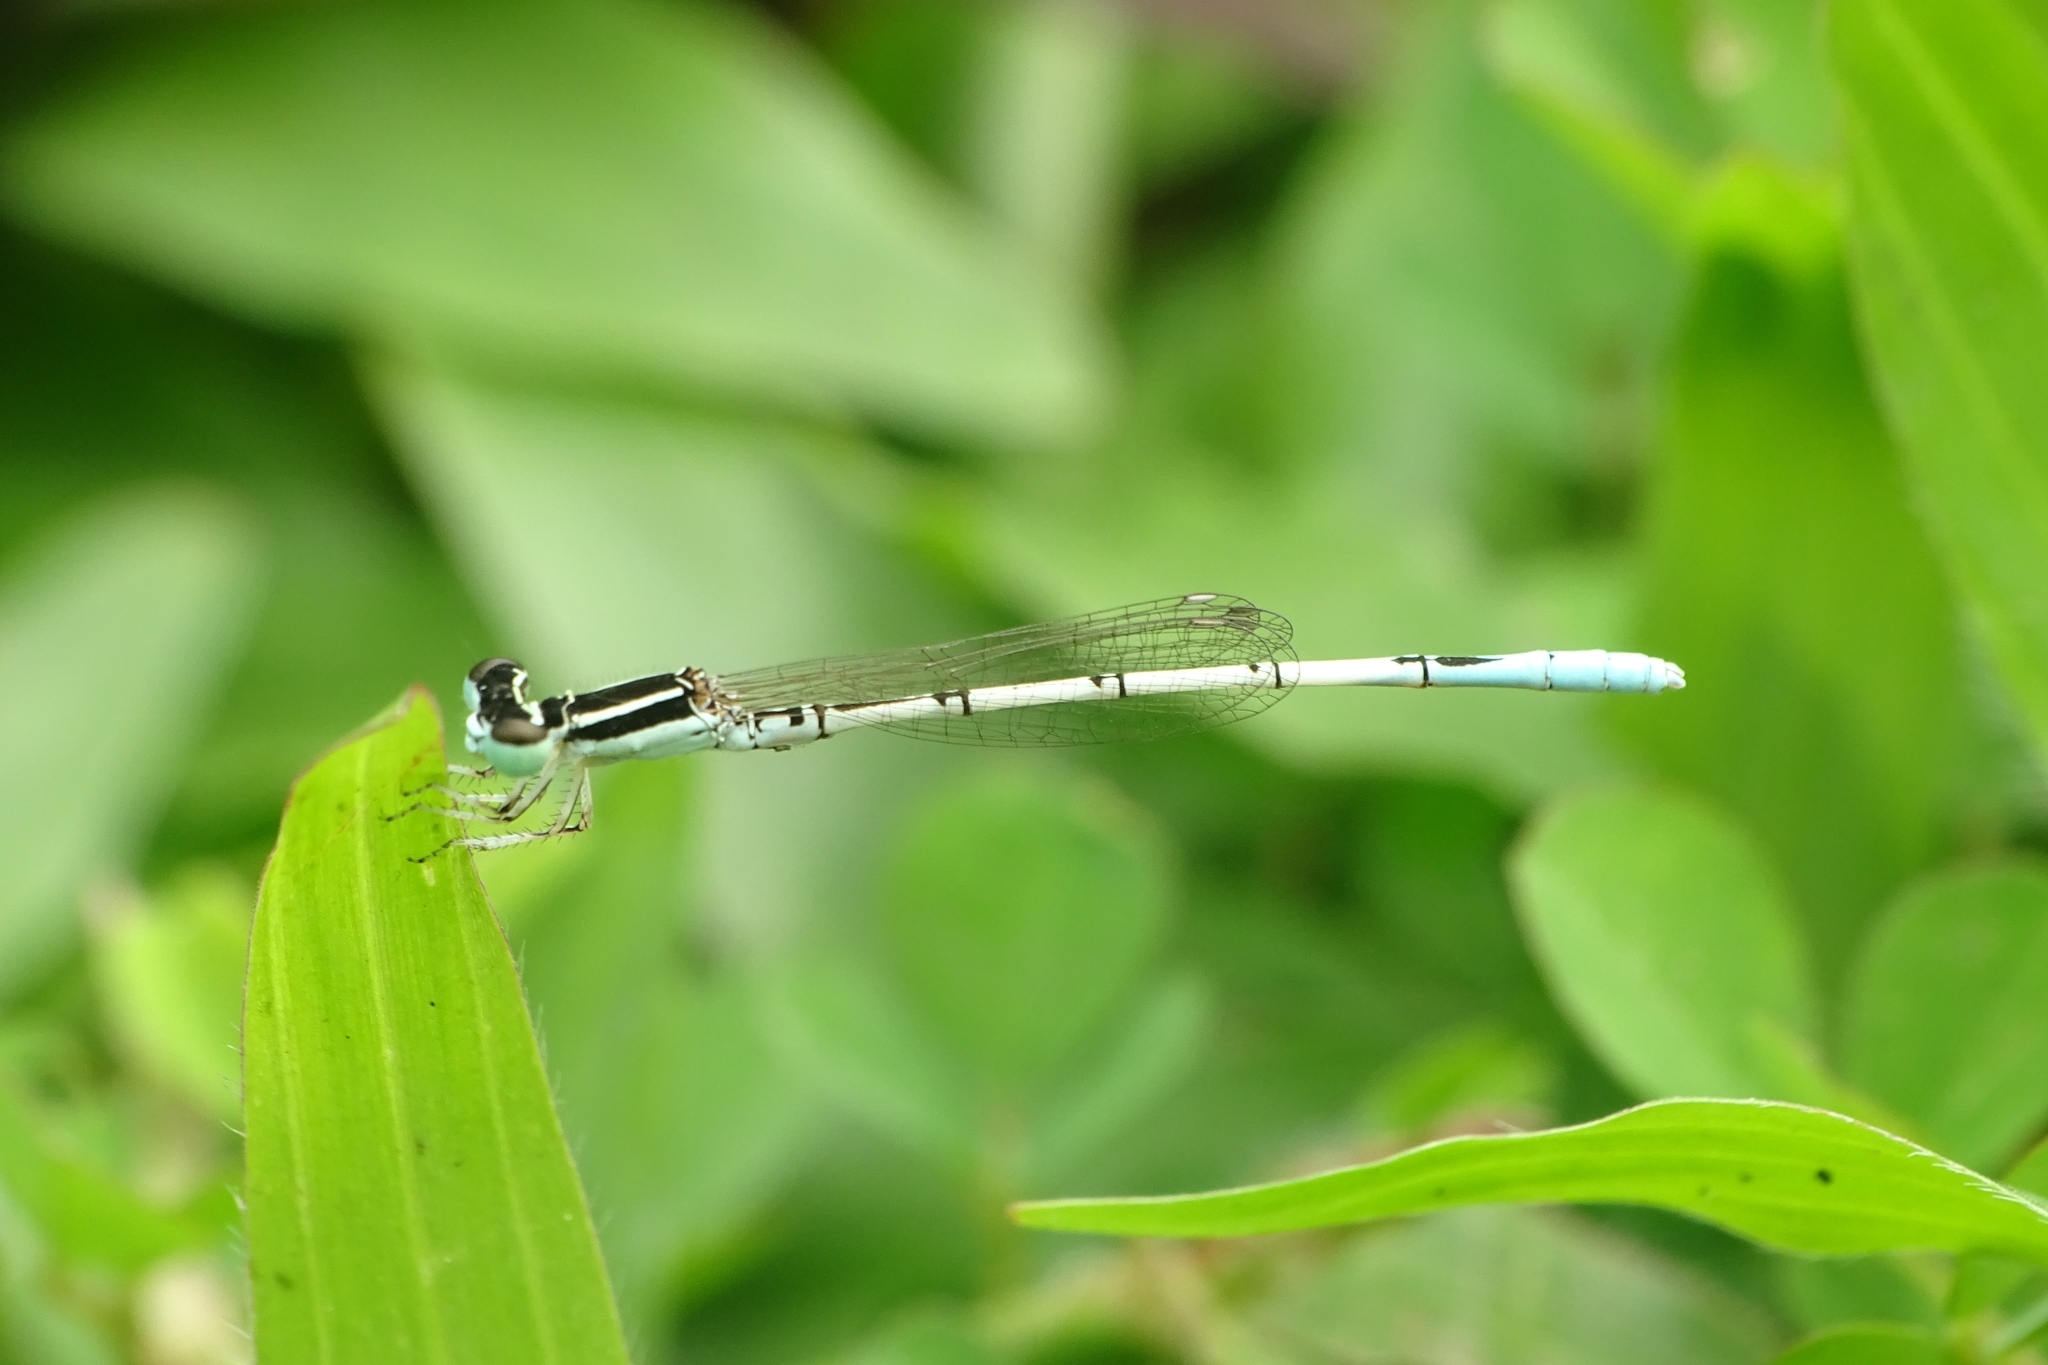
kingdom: Animalia
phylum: Arthropoda
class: Insecta
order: Odonata
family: Coenagrionidae
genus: Agriocnemis
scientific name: Agriocnemis pieris
